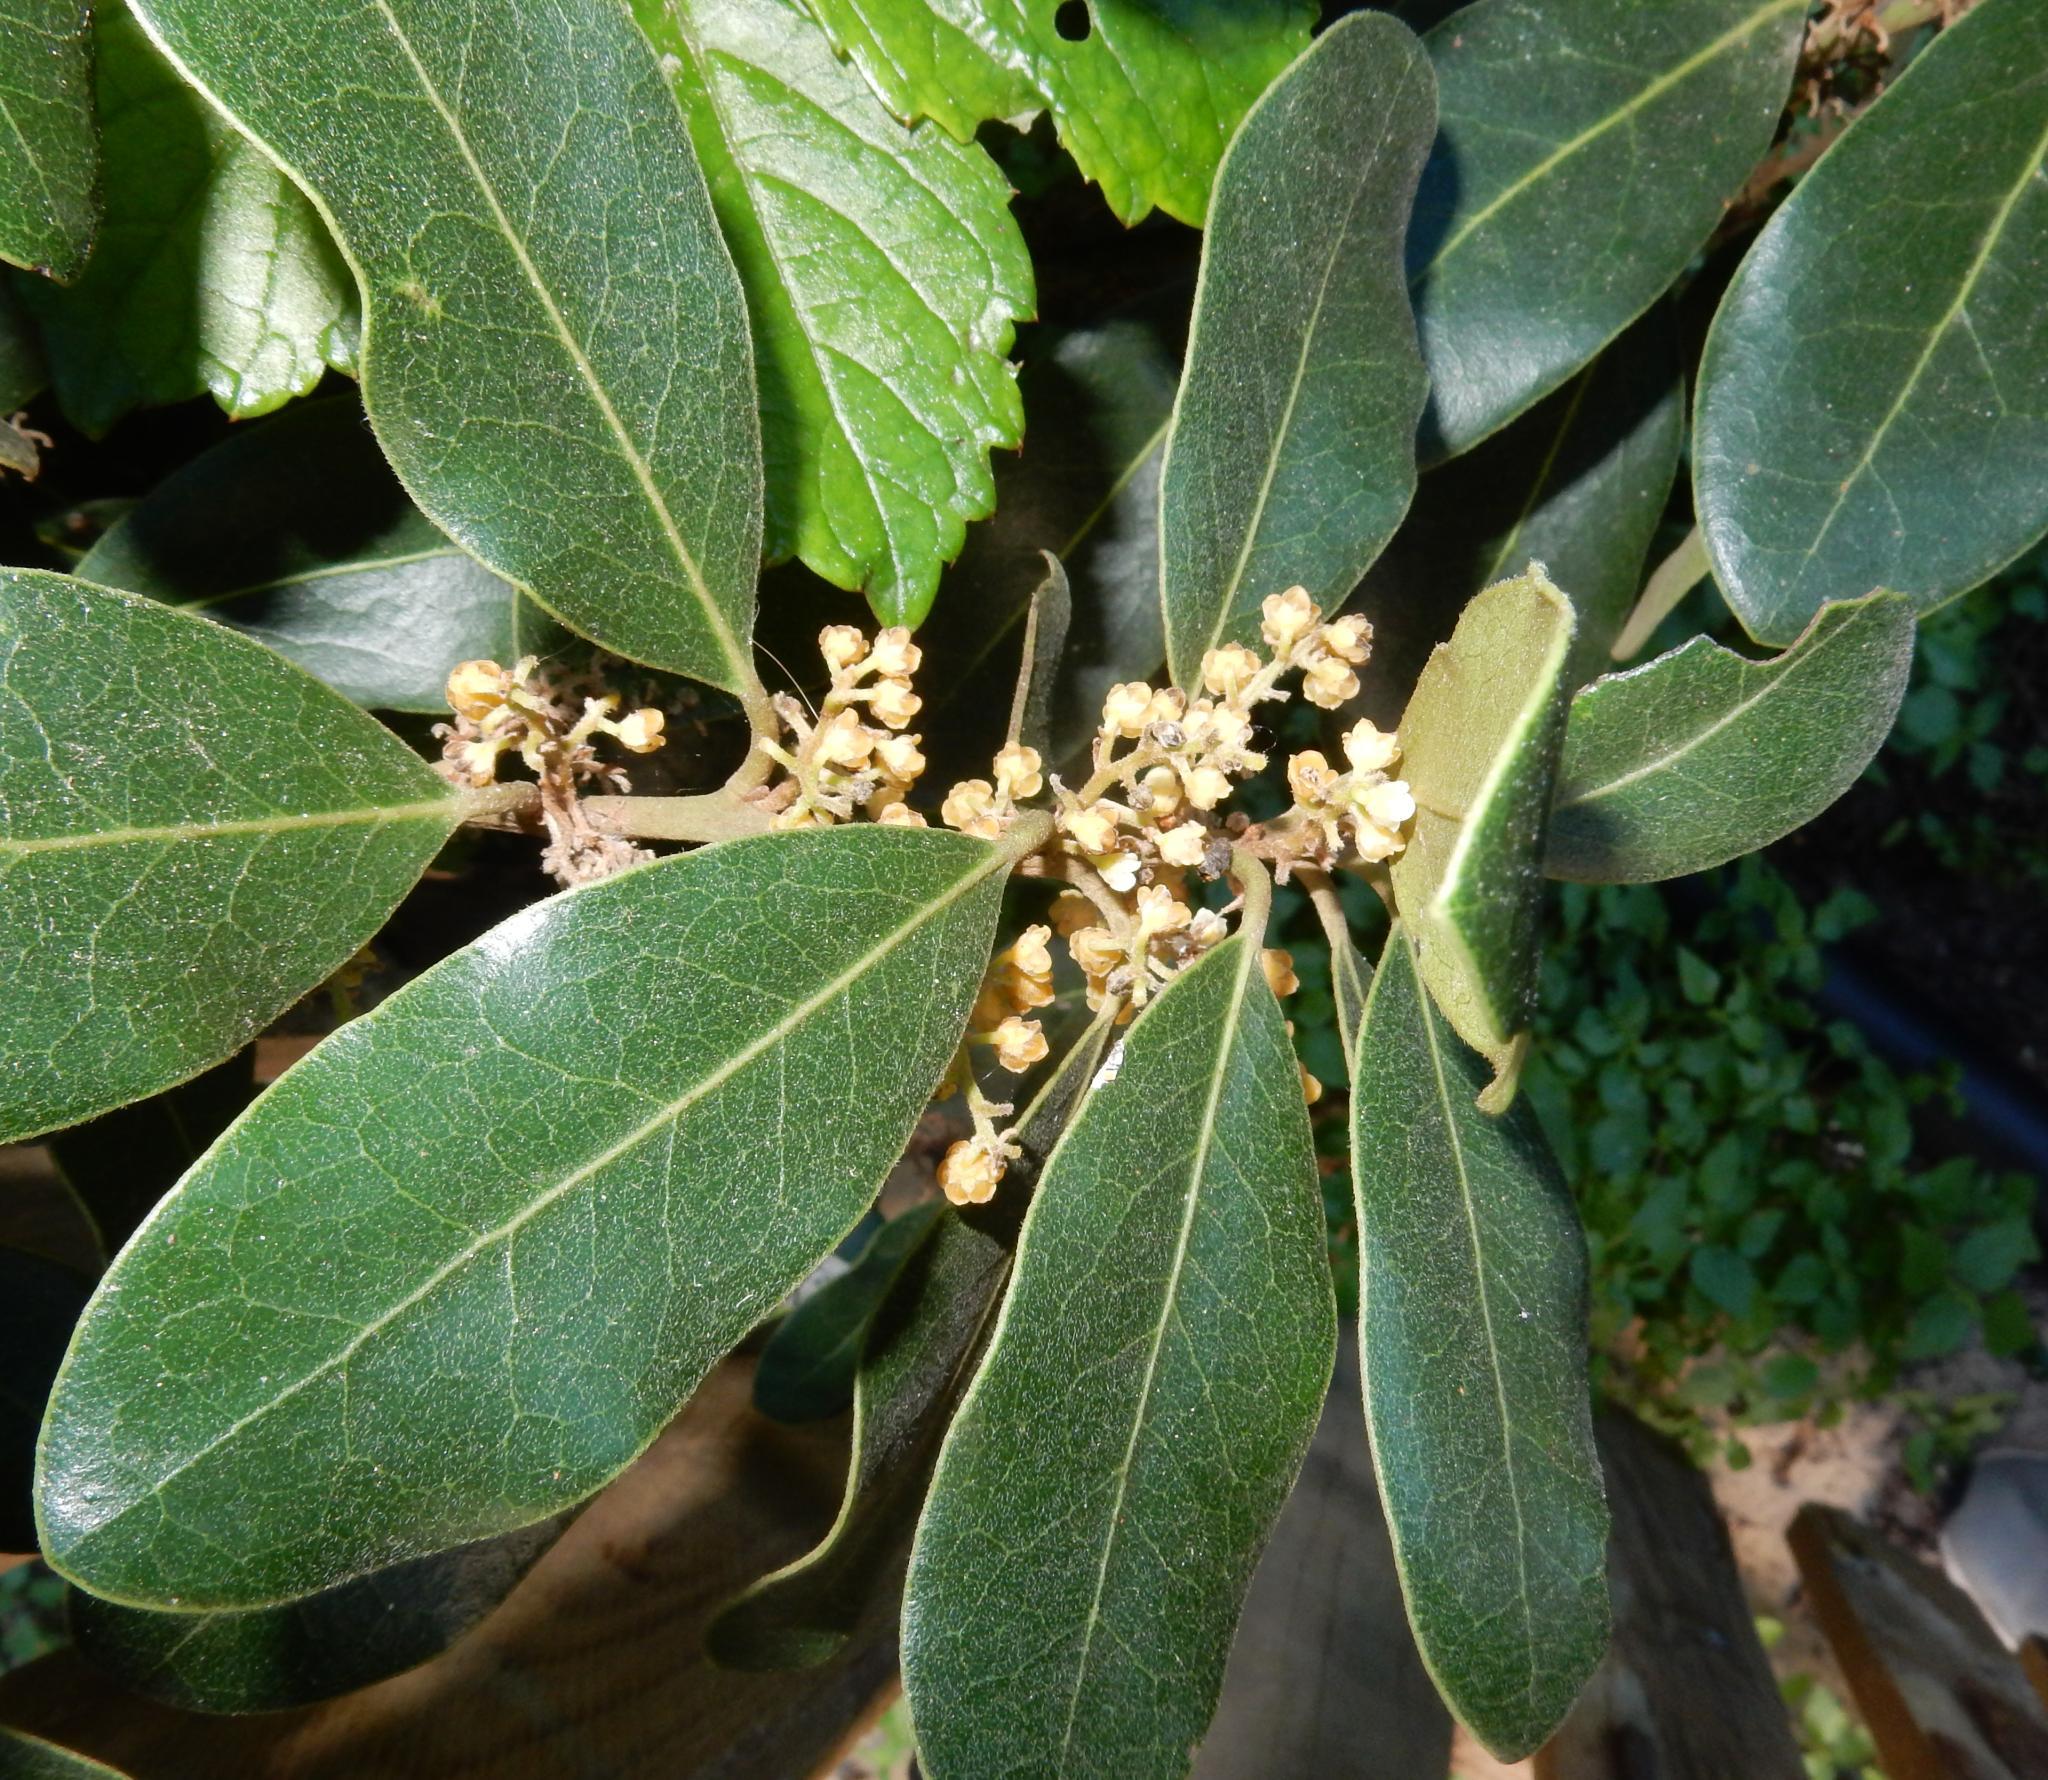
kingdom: Plantae
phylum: Tracheophyta
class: Magnoliopsida
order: Ericales
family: Ebenaceae
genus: Euclea
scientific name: Euclea natalensis
